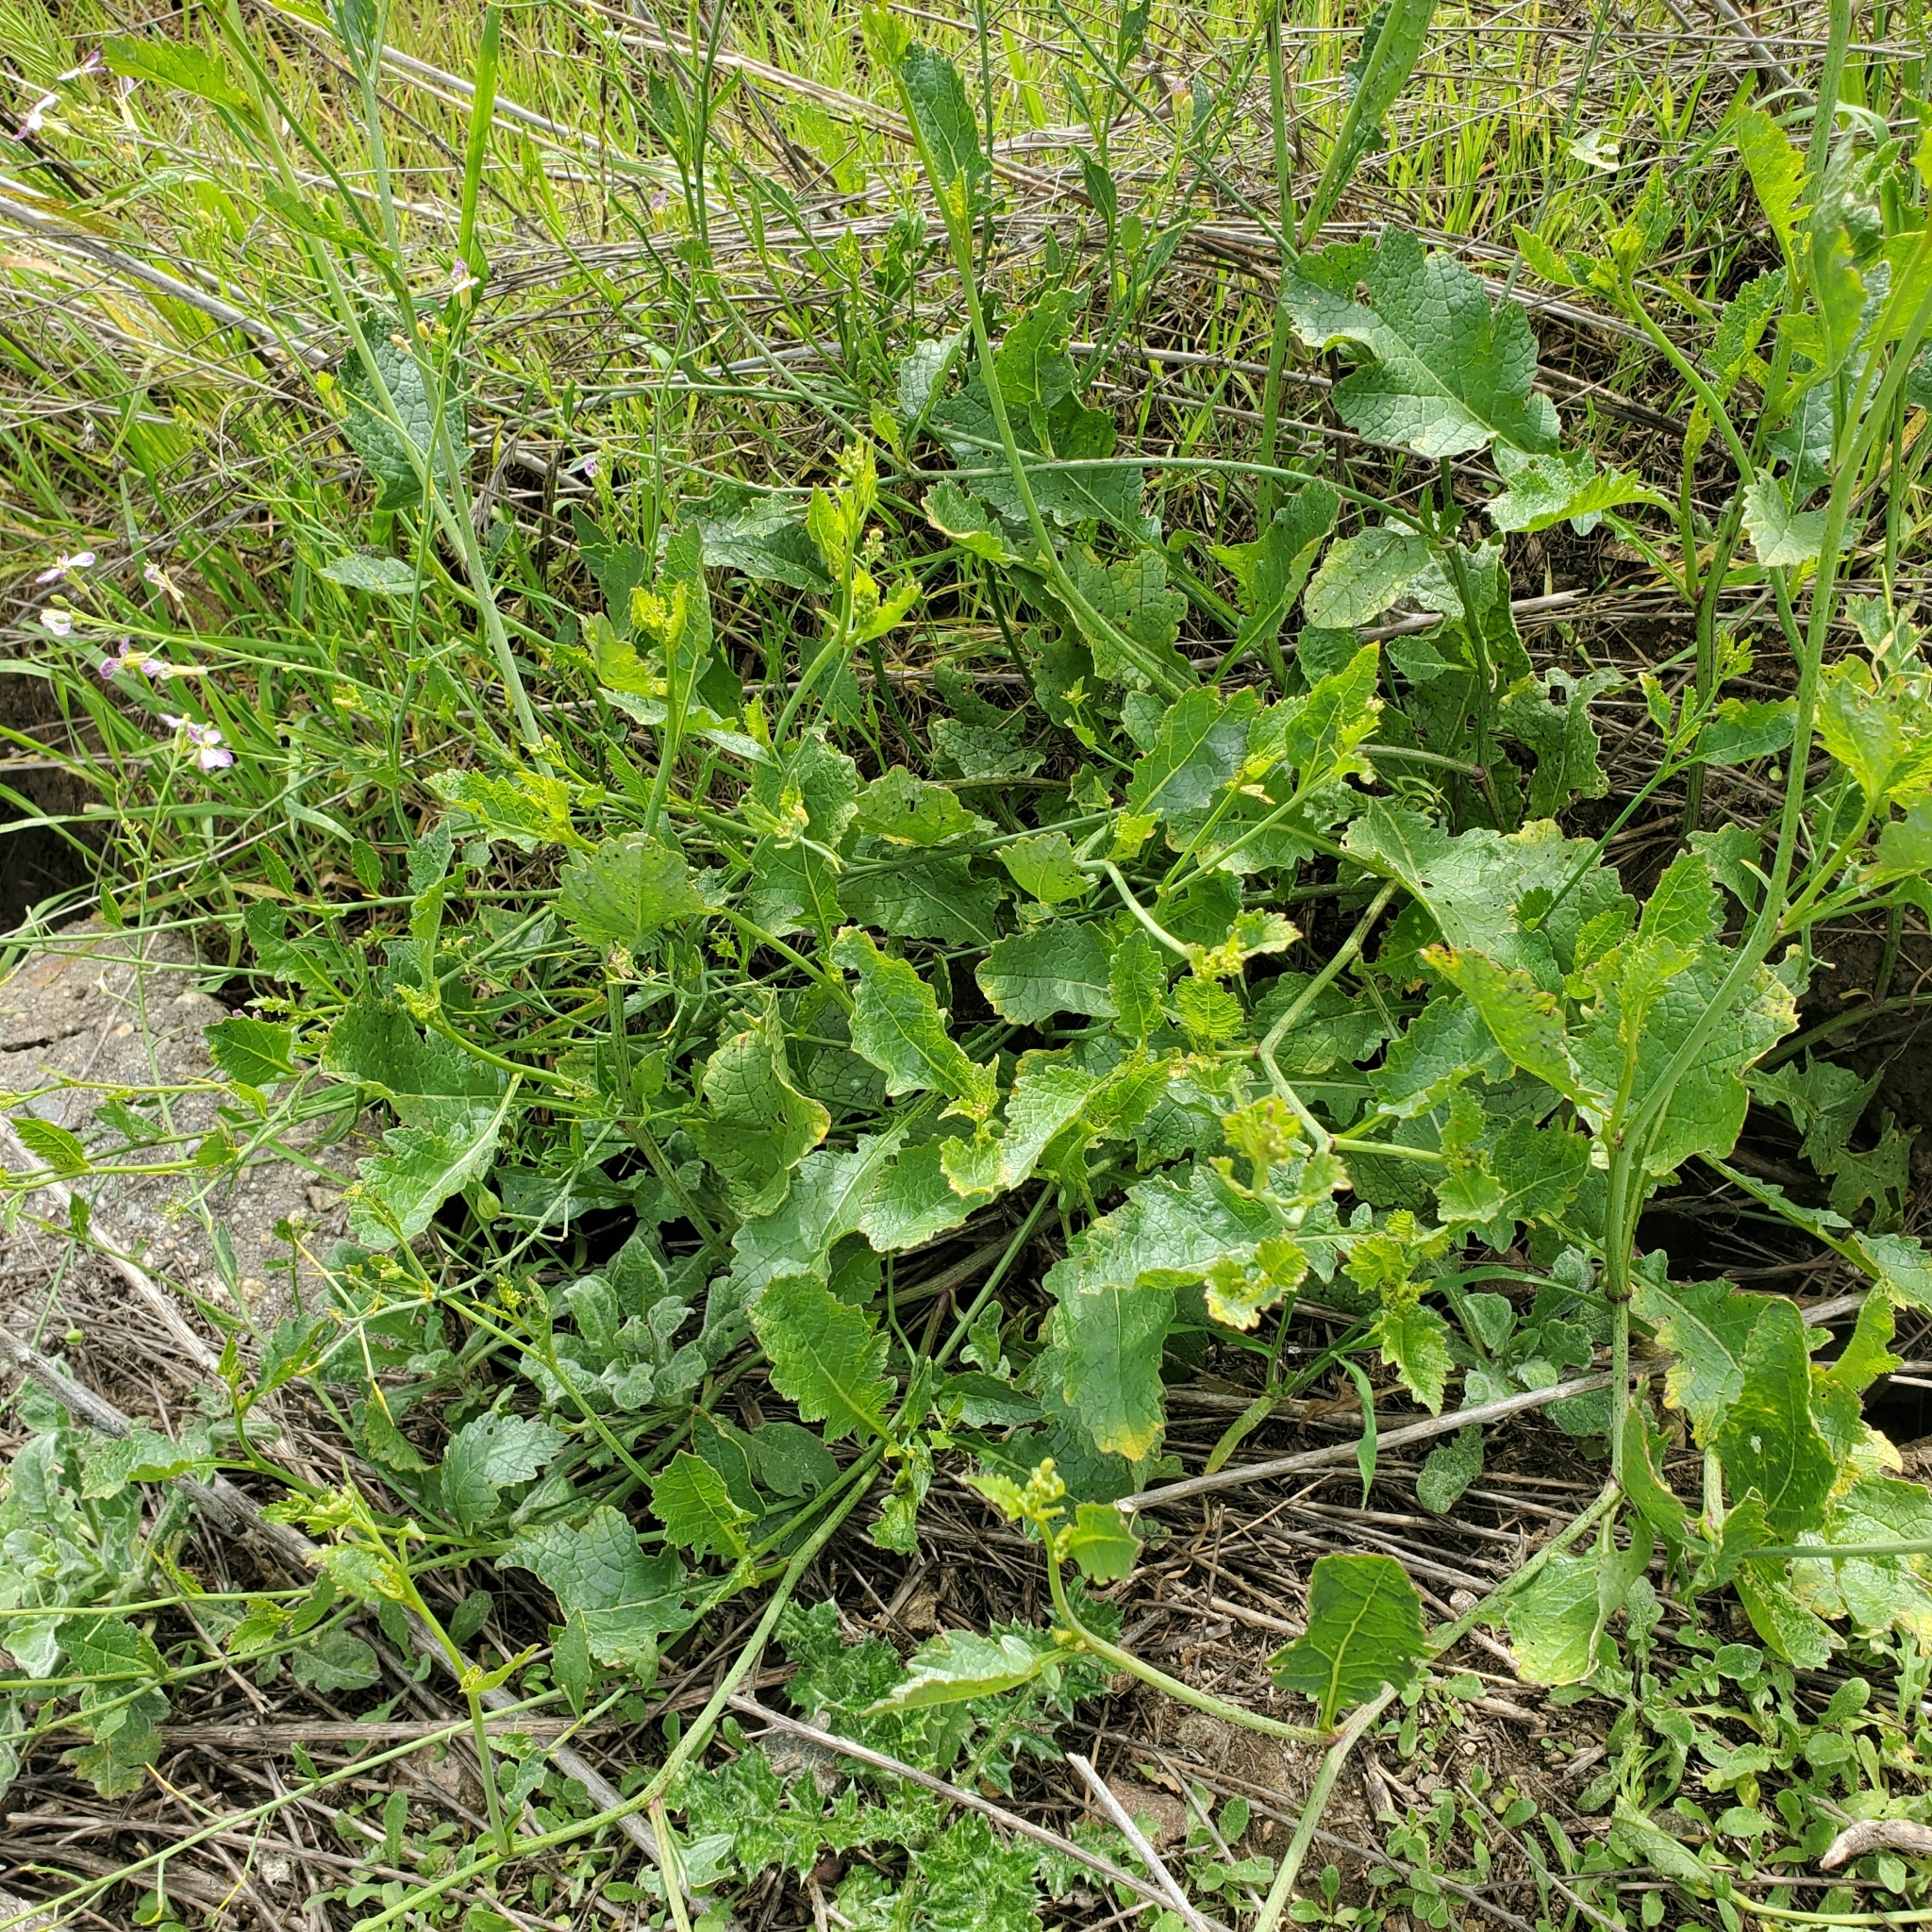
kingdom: Plantae
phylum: Tracheophyta
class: Magnoliopsida
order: Brassicales
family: Brassicaceae
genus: Raphanus
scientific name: Raphanus sativus
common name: Cultivated radish
